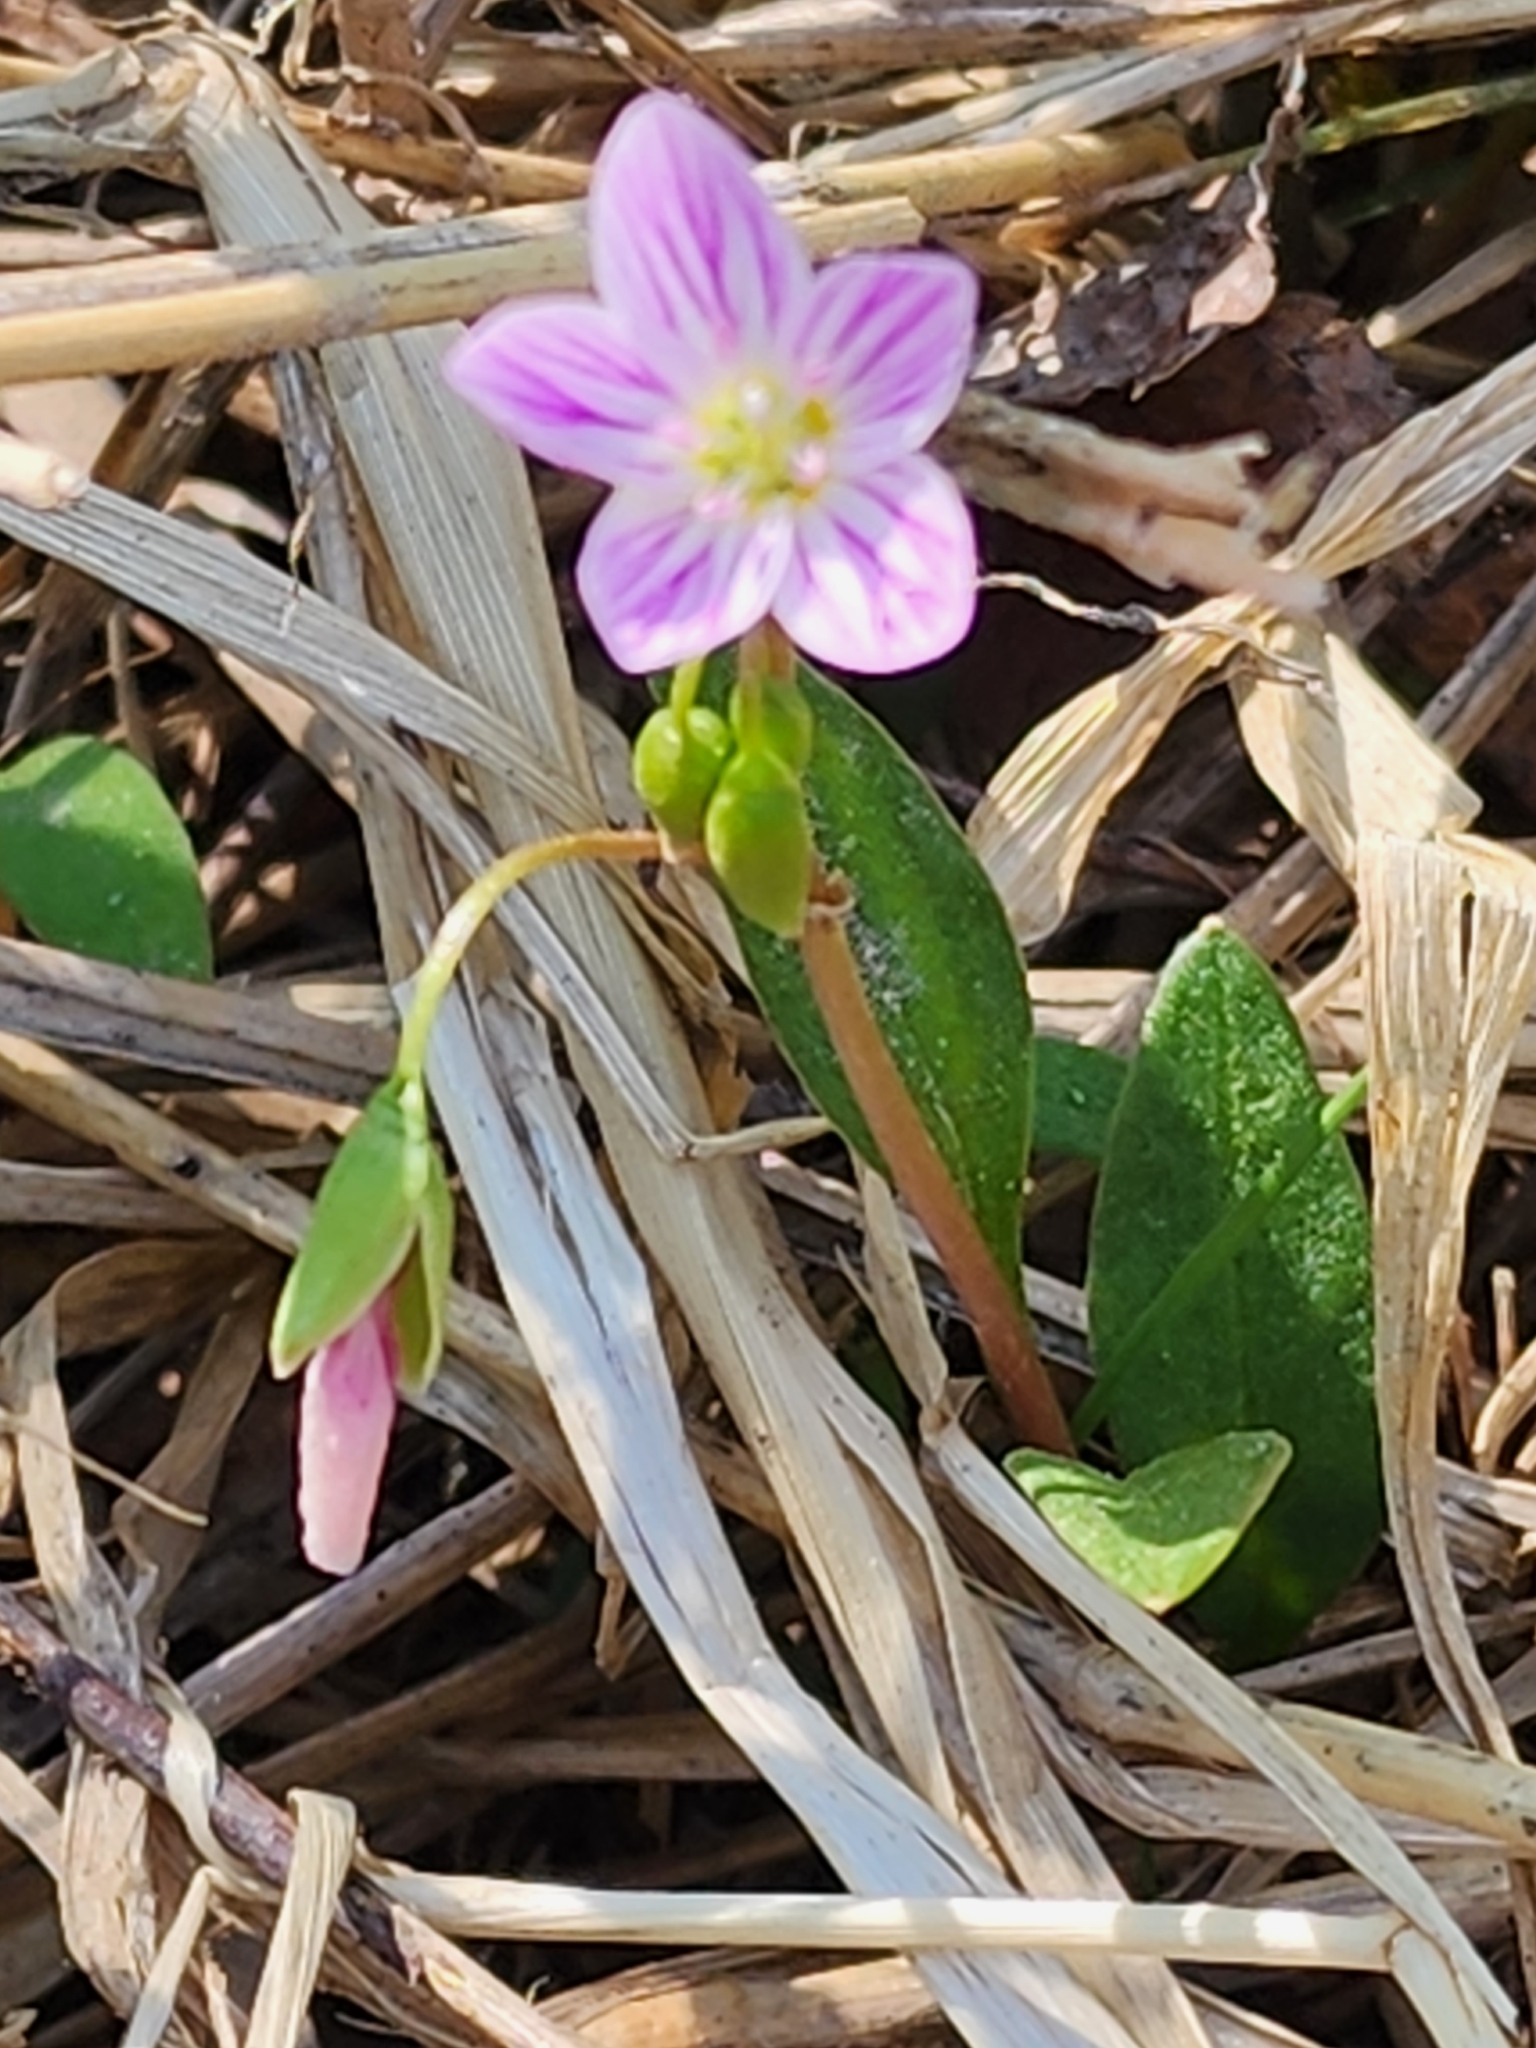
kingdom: Plantae
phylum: Tracheophyta
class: Magnoliopsida
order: Caryophyllales
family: Montiaceae
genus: Claytonia
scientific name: Claytonia caroliniana
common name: Carolina spring beauty
